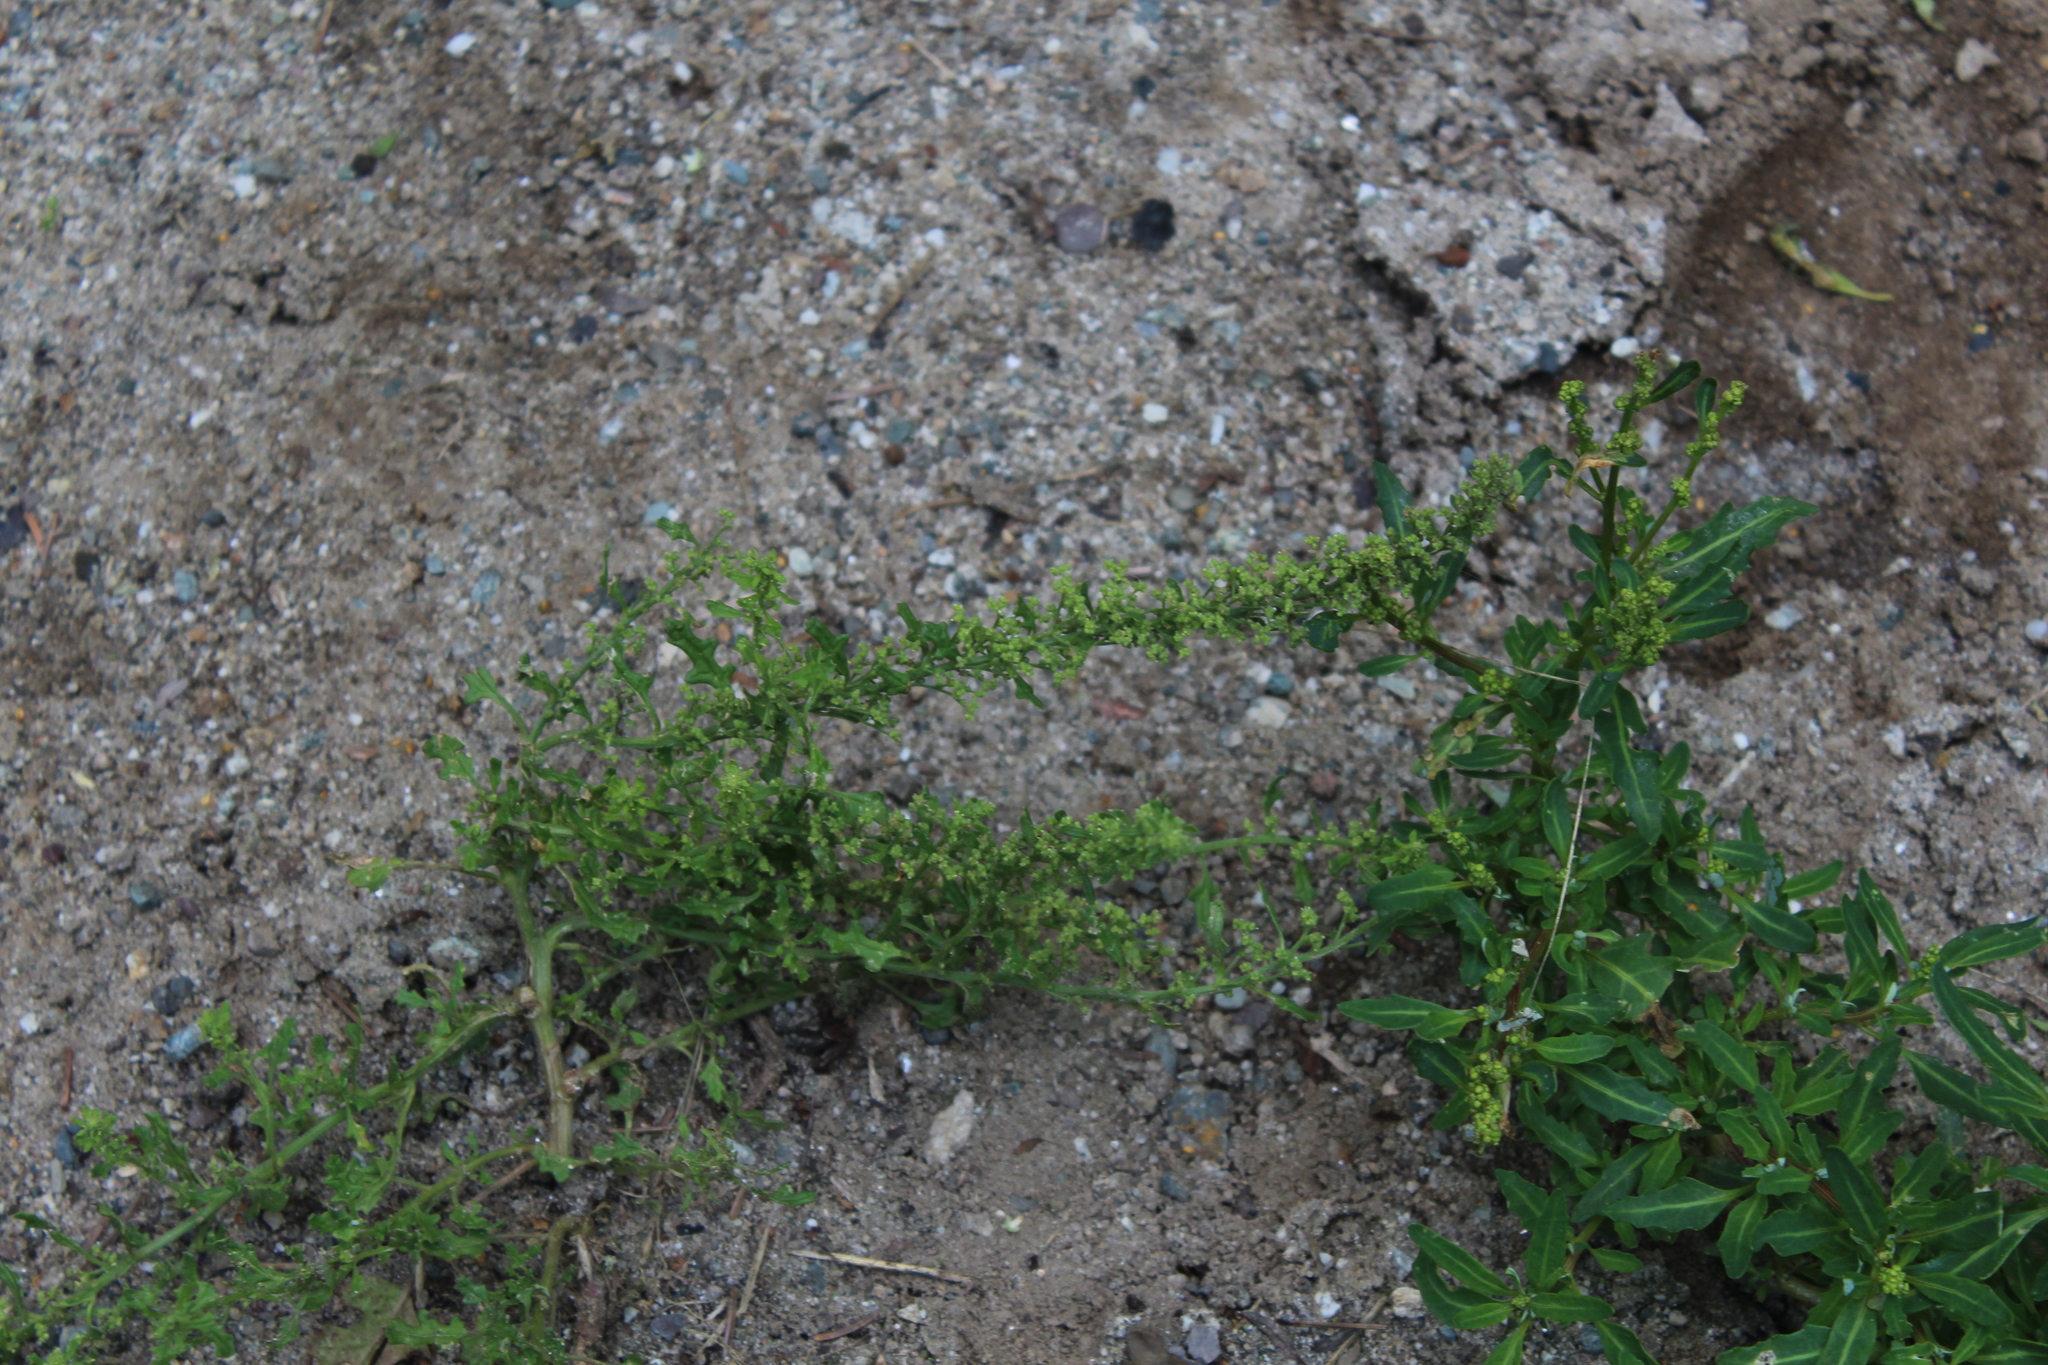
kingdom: Plantae
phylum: Tracheophyta
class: Magnoliopsida
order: Caryophyllales
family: Amaranthaceae
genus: Dysphania
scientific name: Dysphania botrys
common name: Feather-geranium
